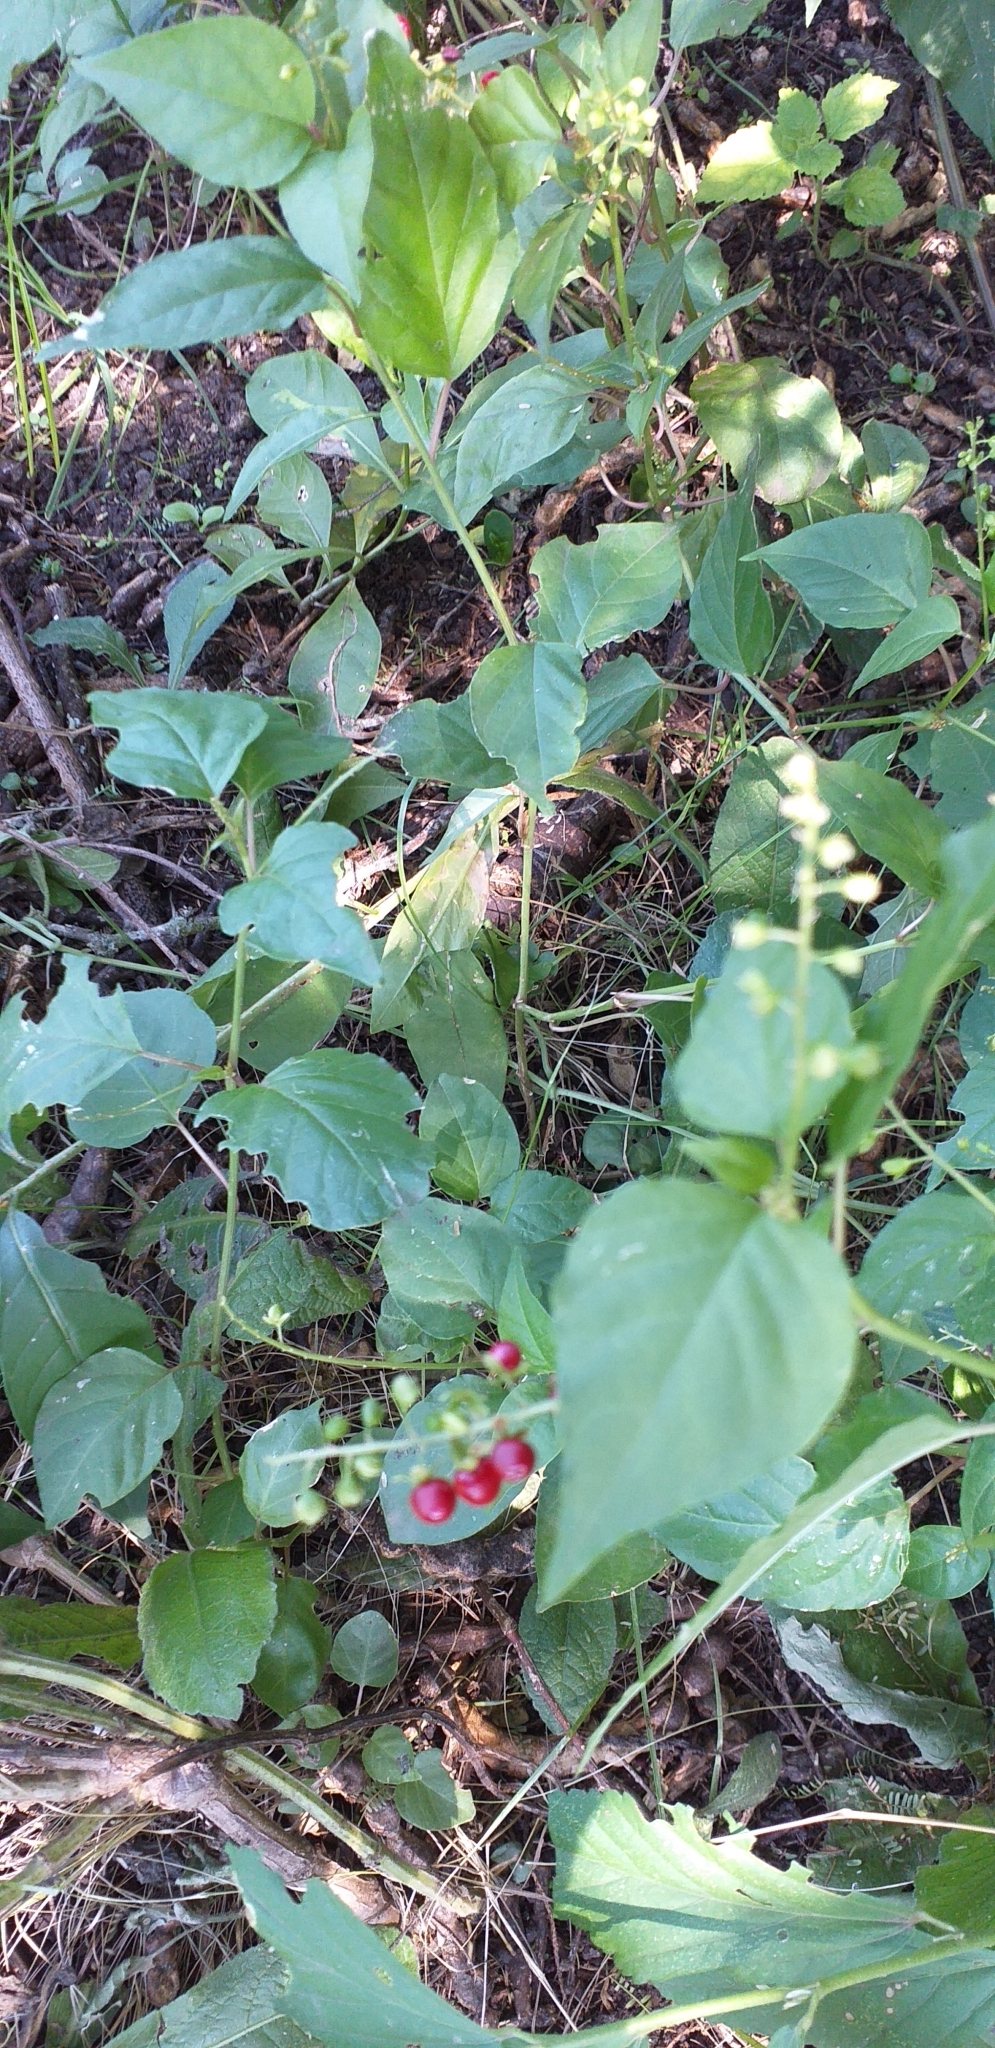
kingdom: Plantae
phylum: Tracheophyta
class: Magnoliopsida
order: Caryophyllales
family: Phytolaccaceae
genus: Rivina
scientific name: Rivina humilis
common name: Rougeplant
